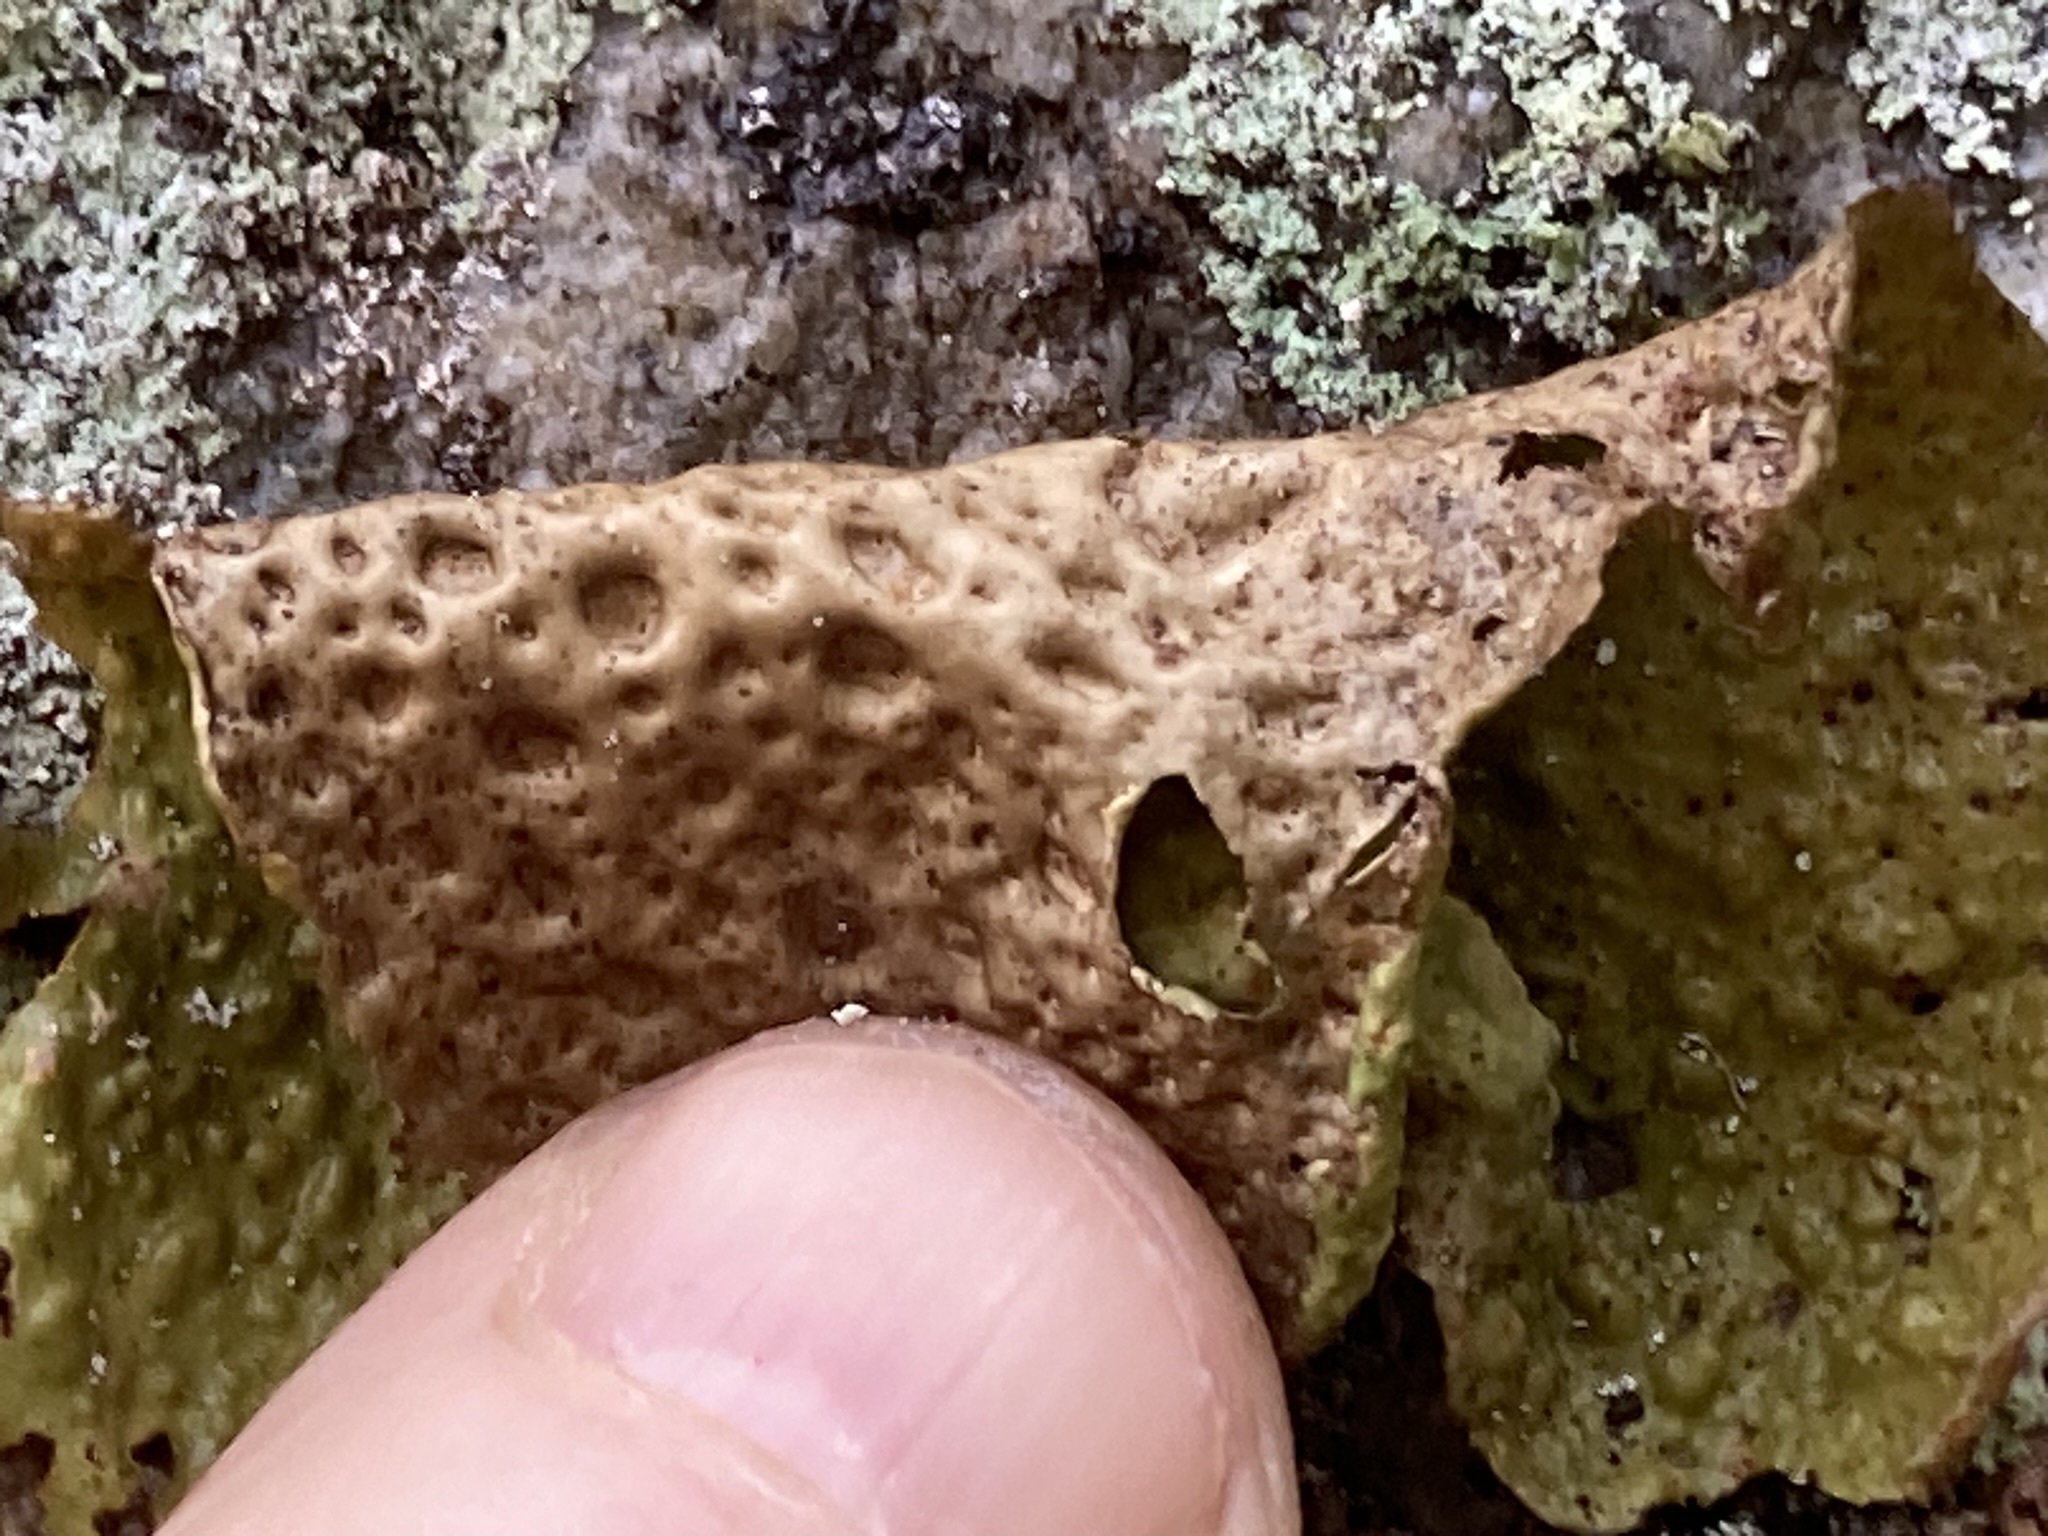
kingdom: Fungi
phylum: Ascomycota
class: Lecanoromycetes
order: Umbilicariales
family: Umbilicariaceae
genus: Lasallia
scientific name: Lasallia papulosa
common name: Common toadskin lichen
